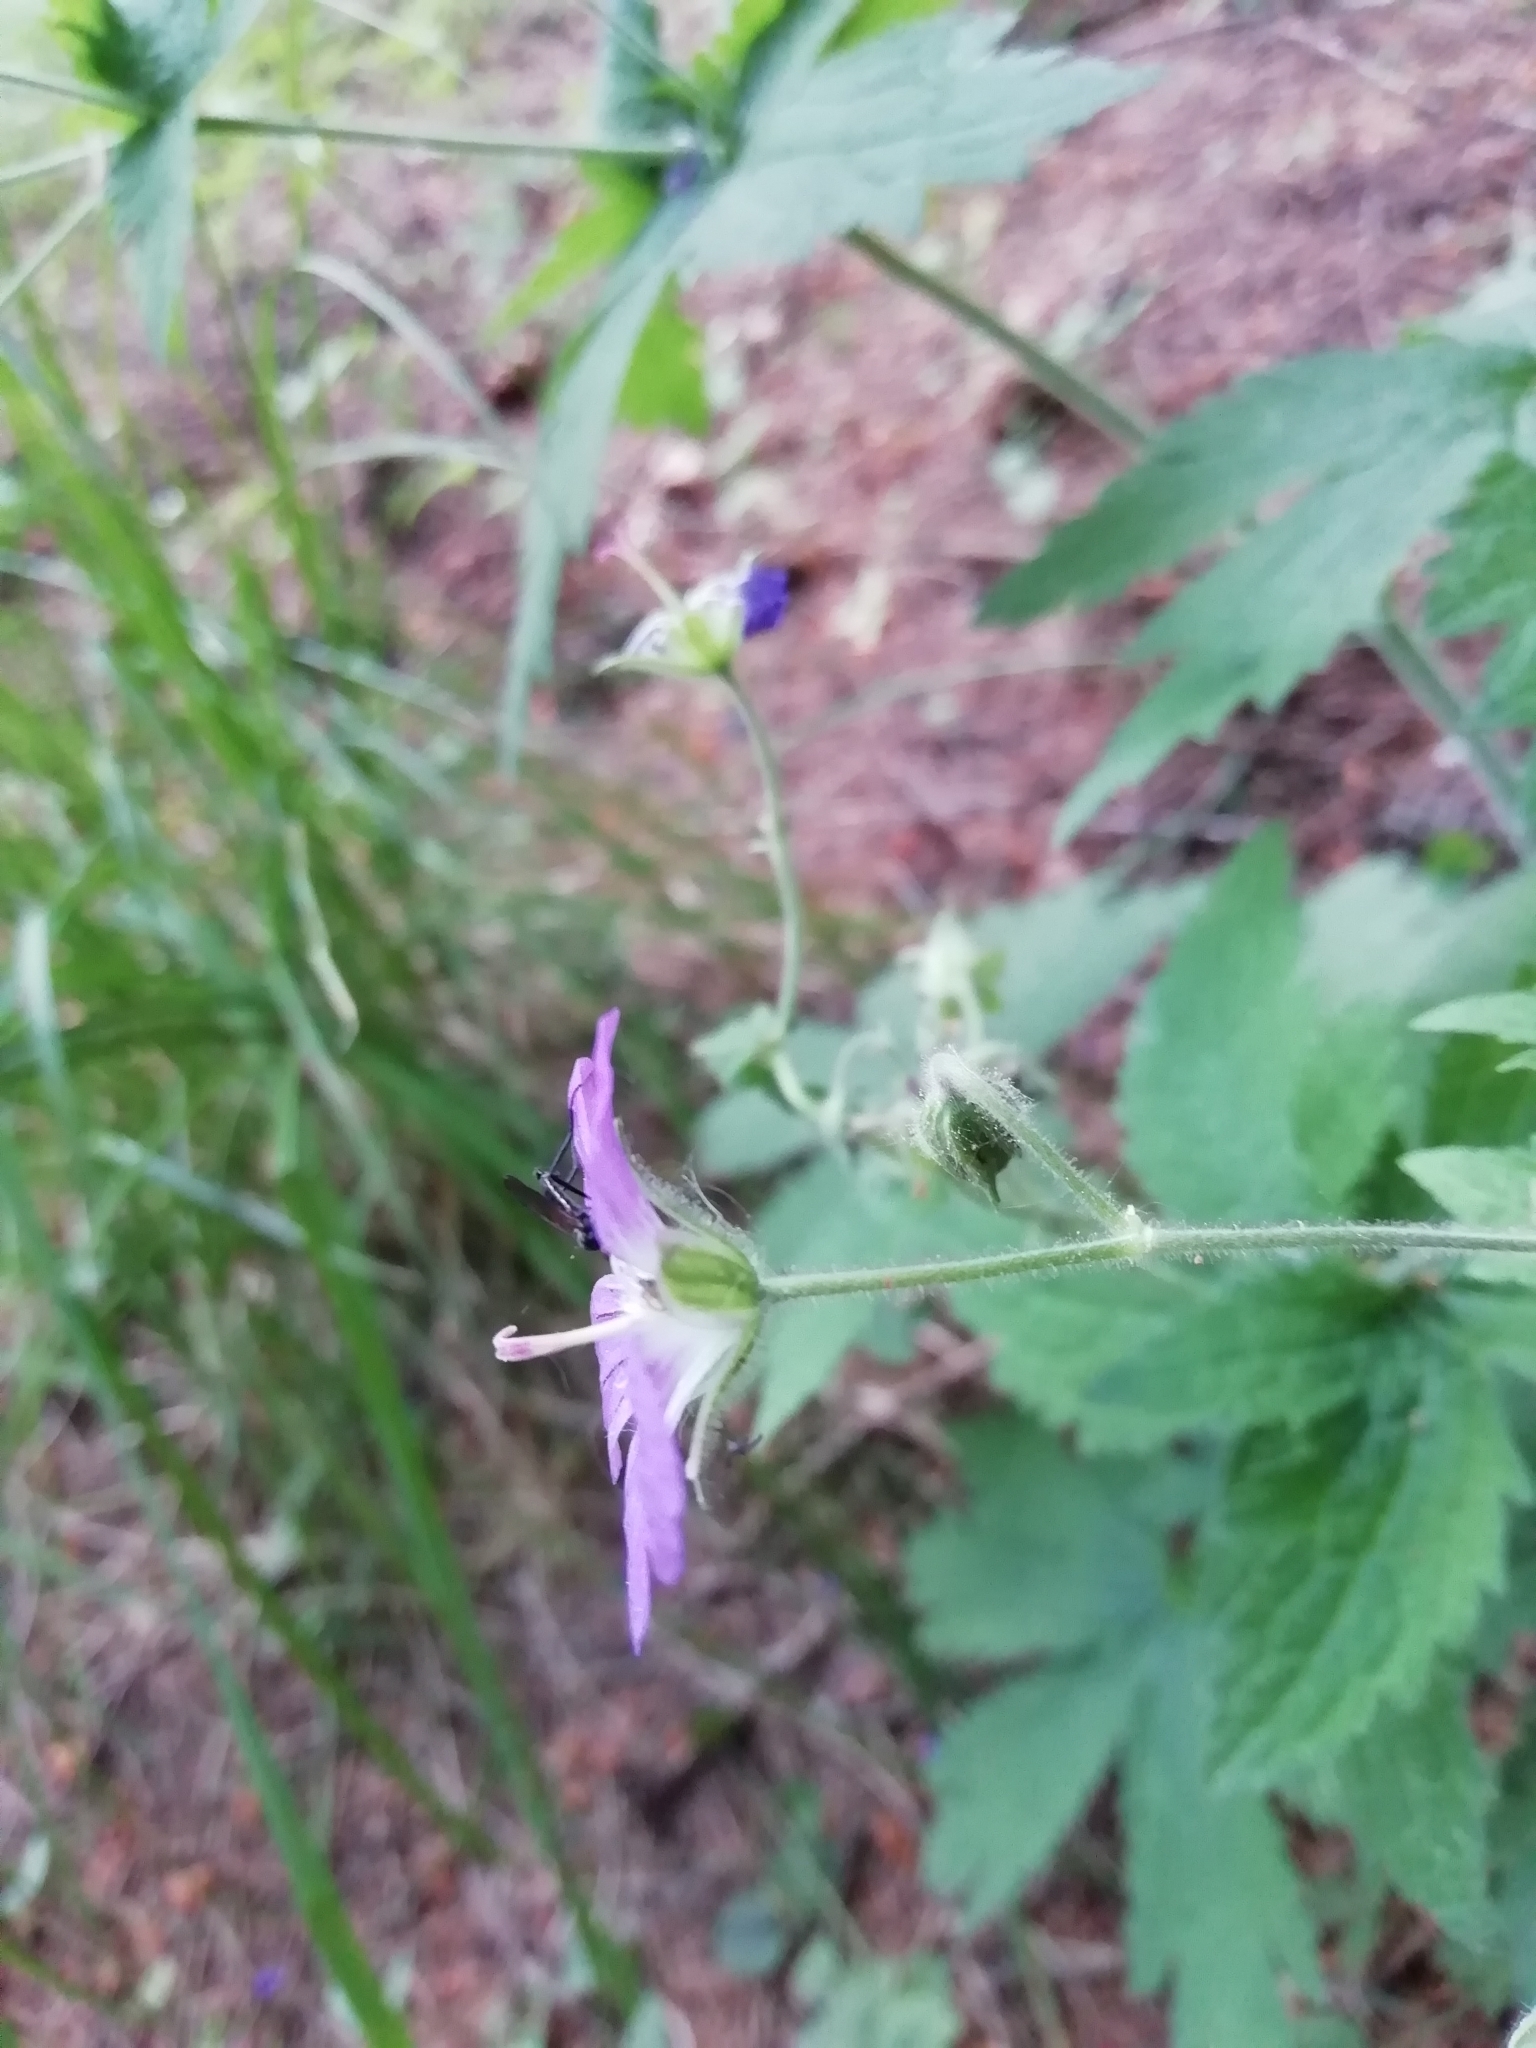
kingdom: Plantae
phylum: Tracheophyta
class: Magnoliopsida
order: Geraniales
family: Geraniaceae
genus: Geranium
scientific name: Geranium sylvaticum
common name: Wood crane's-bill
